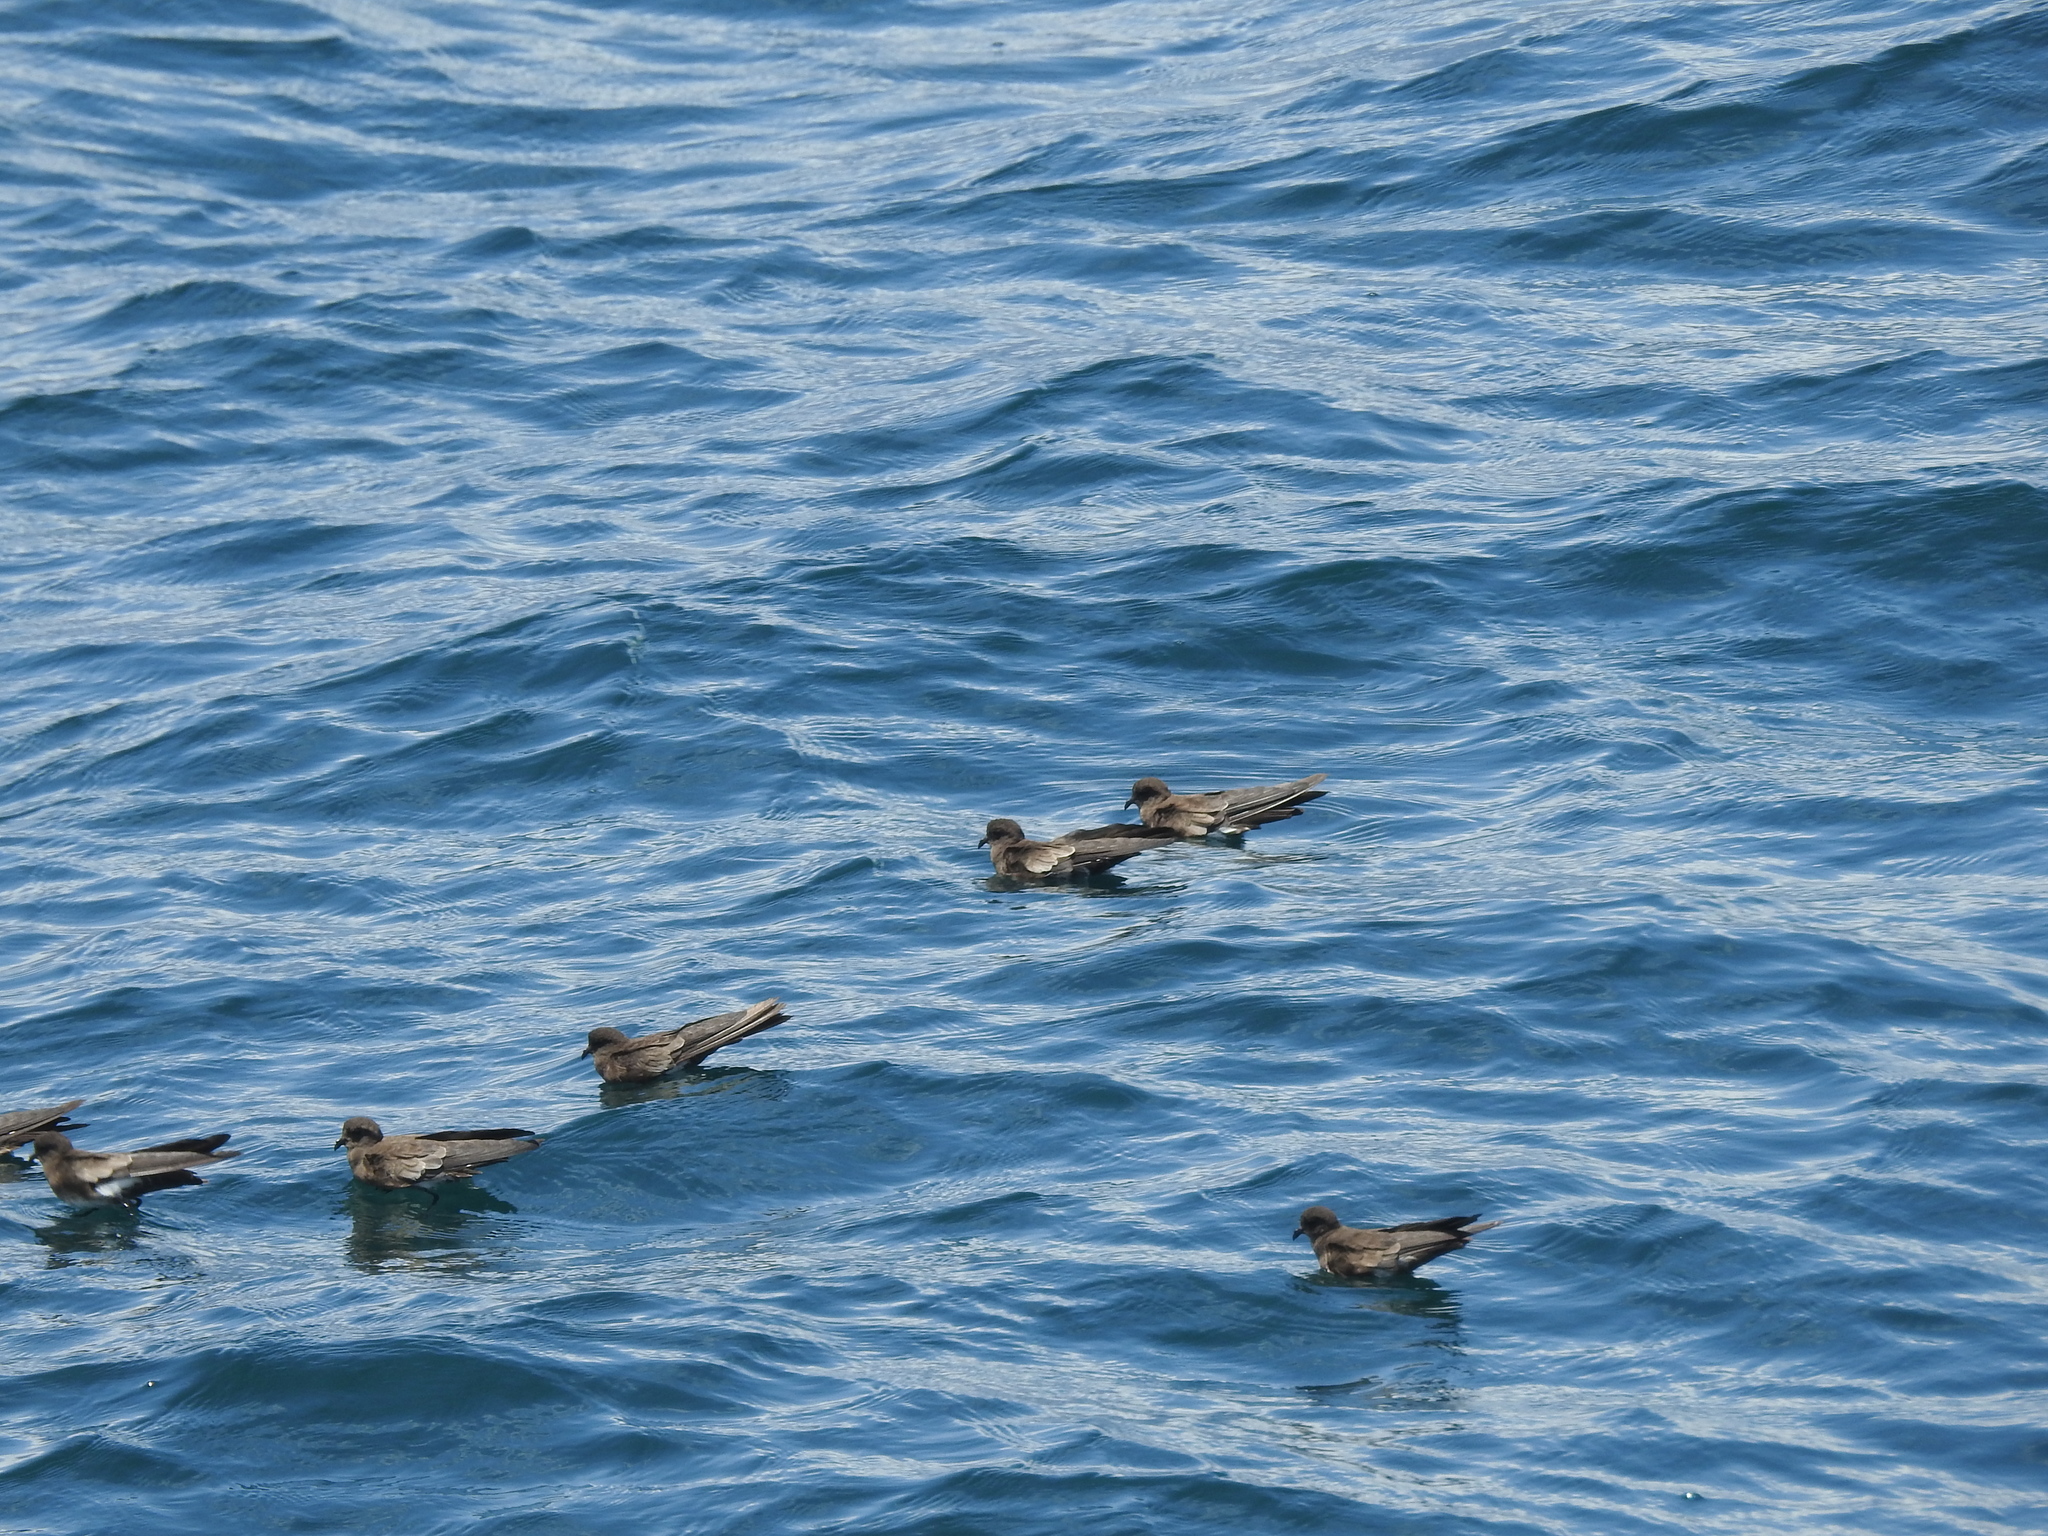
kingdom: Animalia
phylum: Chordata
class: Aves
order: Procellariiformes
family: Hydrobatidae
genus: Oceanites
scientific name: Oceanites gracilis
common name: Elliot's storm-petrel
